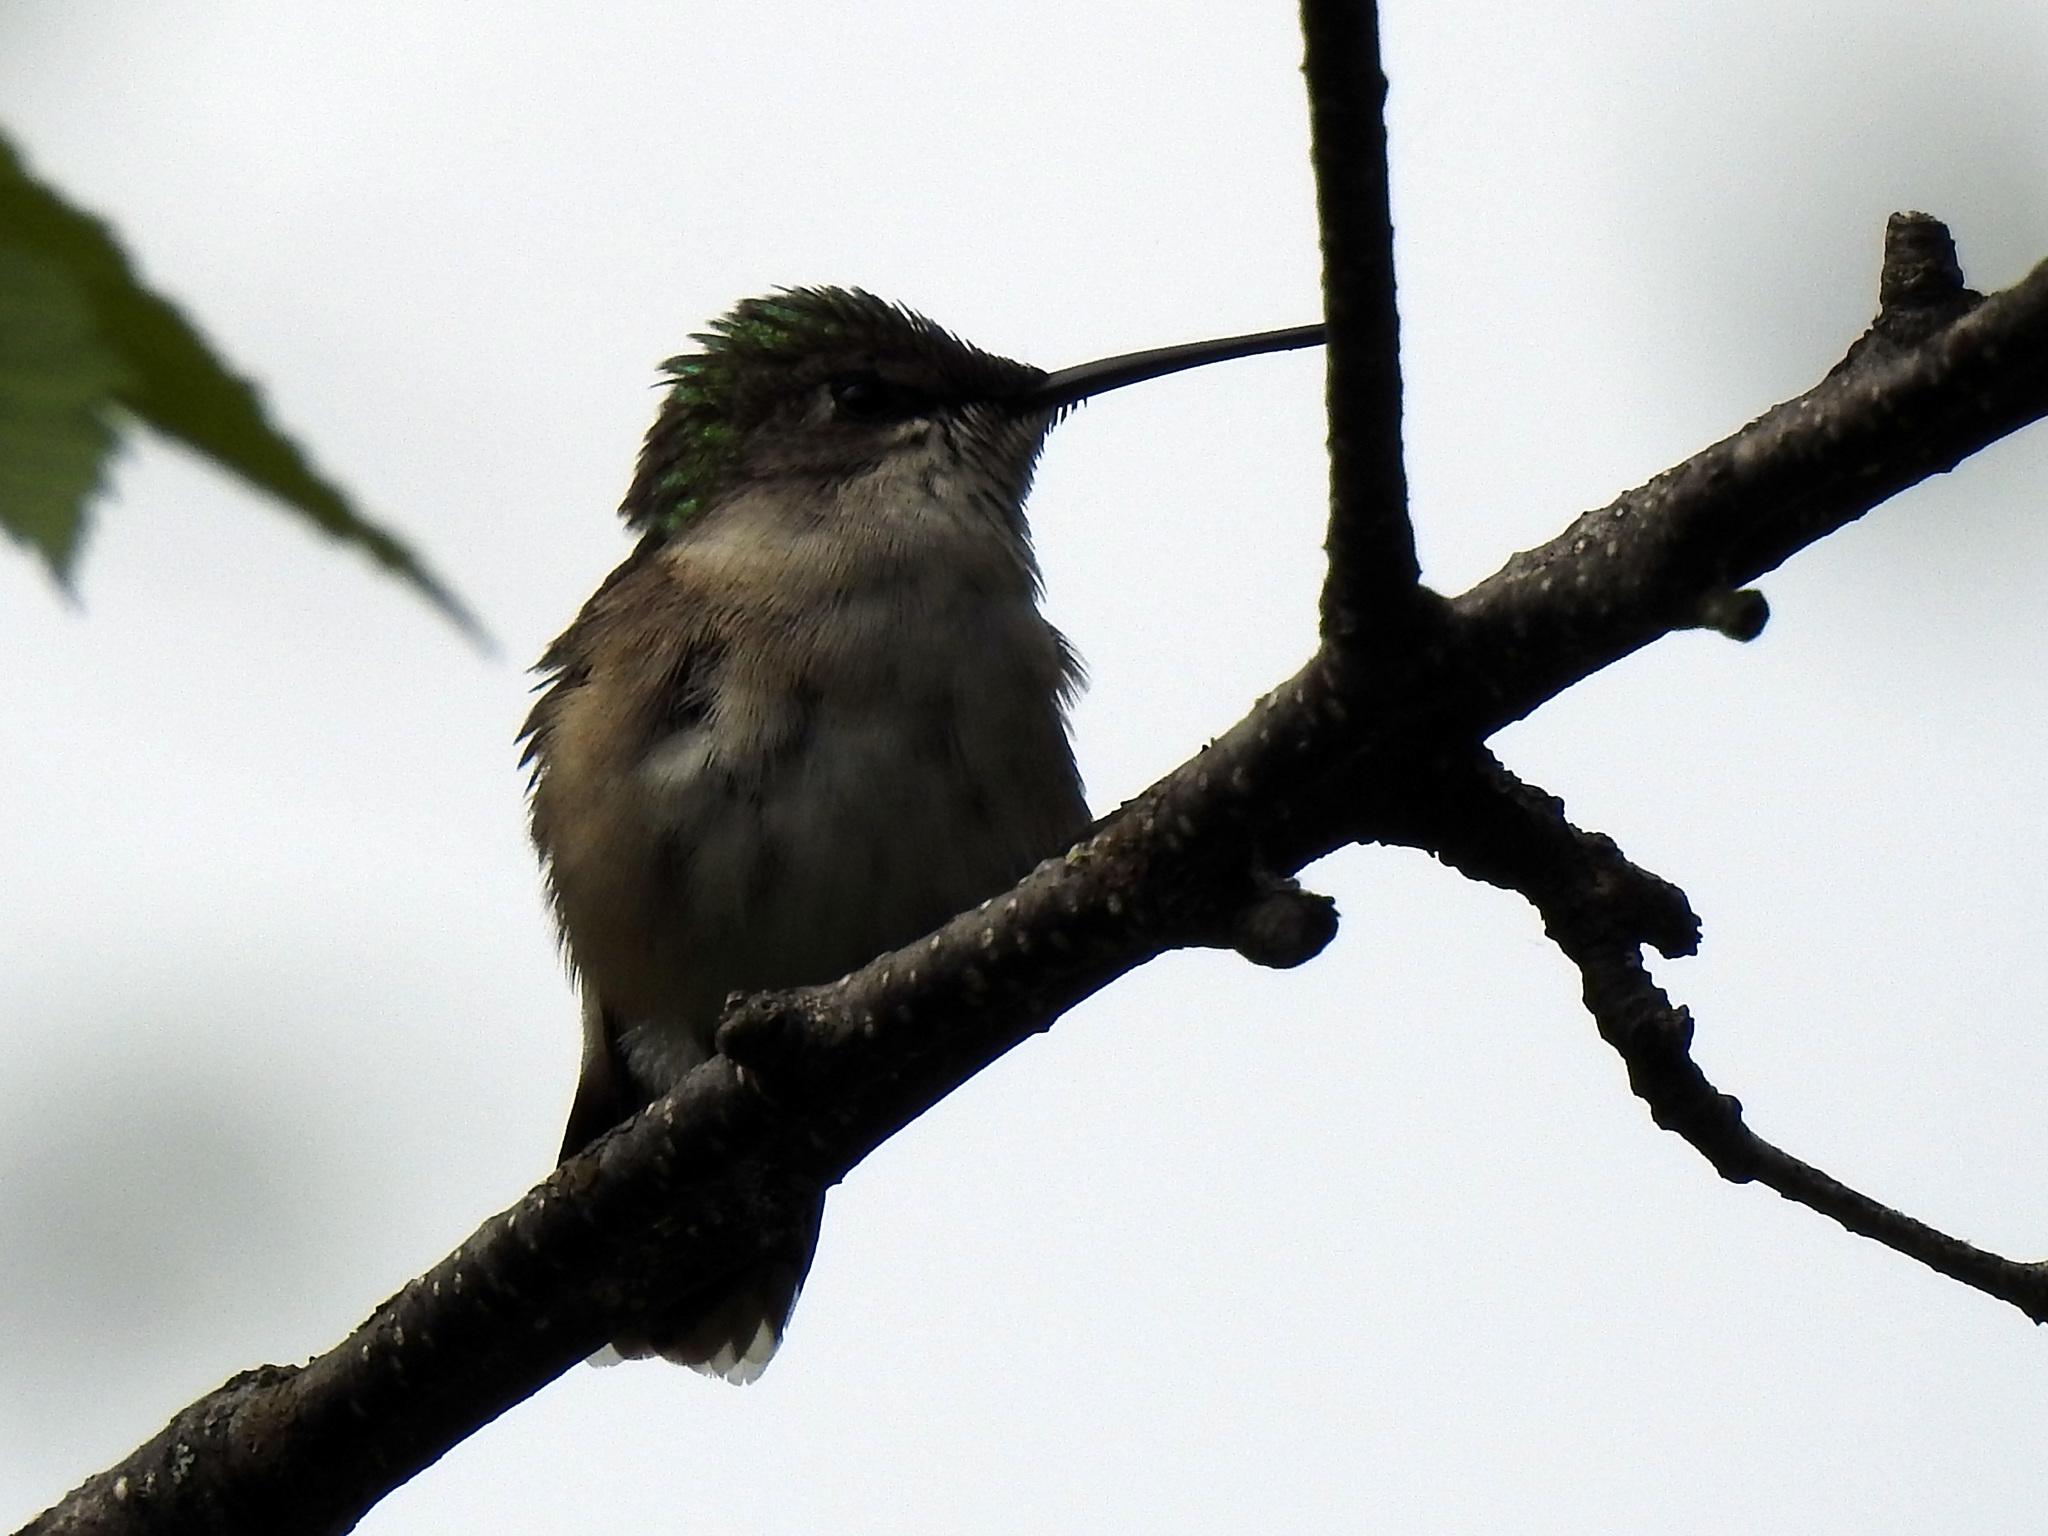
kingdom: Animalia
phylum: Chordata
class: Aves
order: Apodiformes
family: Trochilidae
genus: Archilochus
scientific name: Archilochus colubris
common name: Ruby-throated hummingbird
